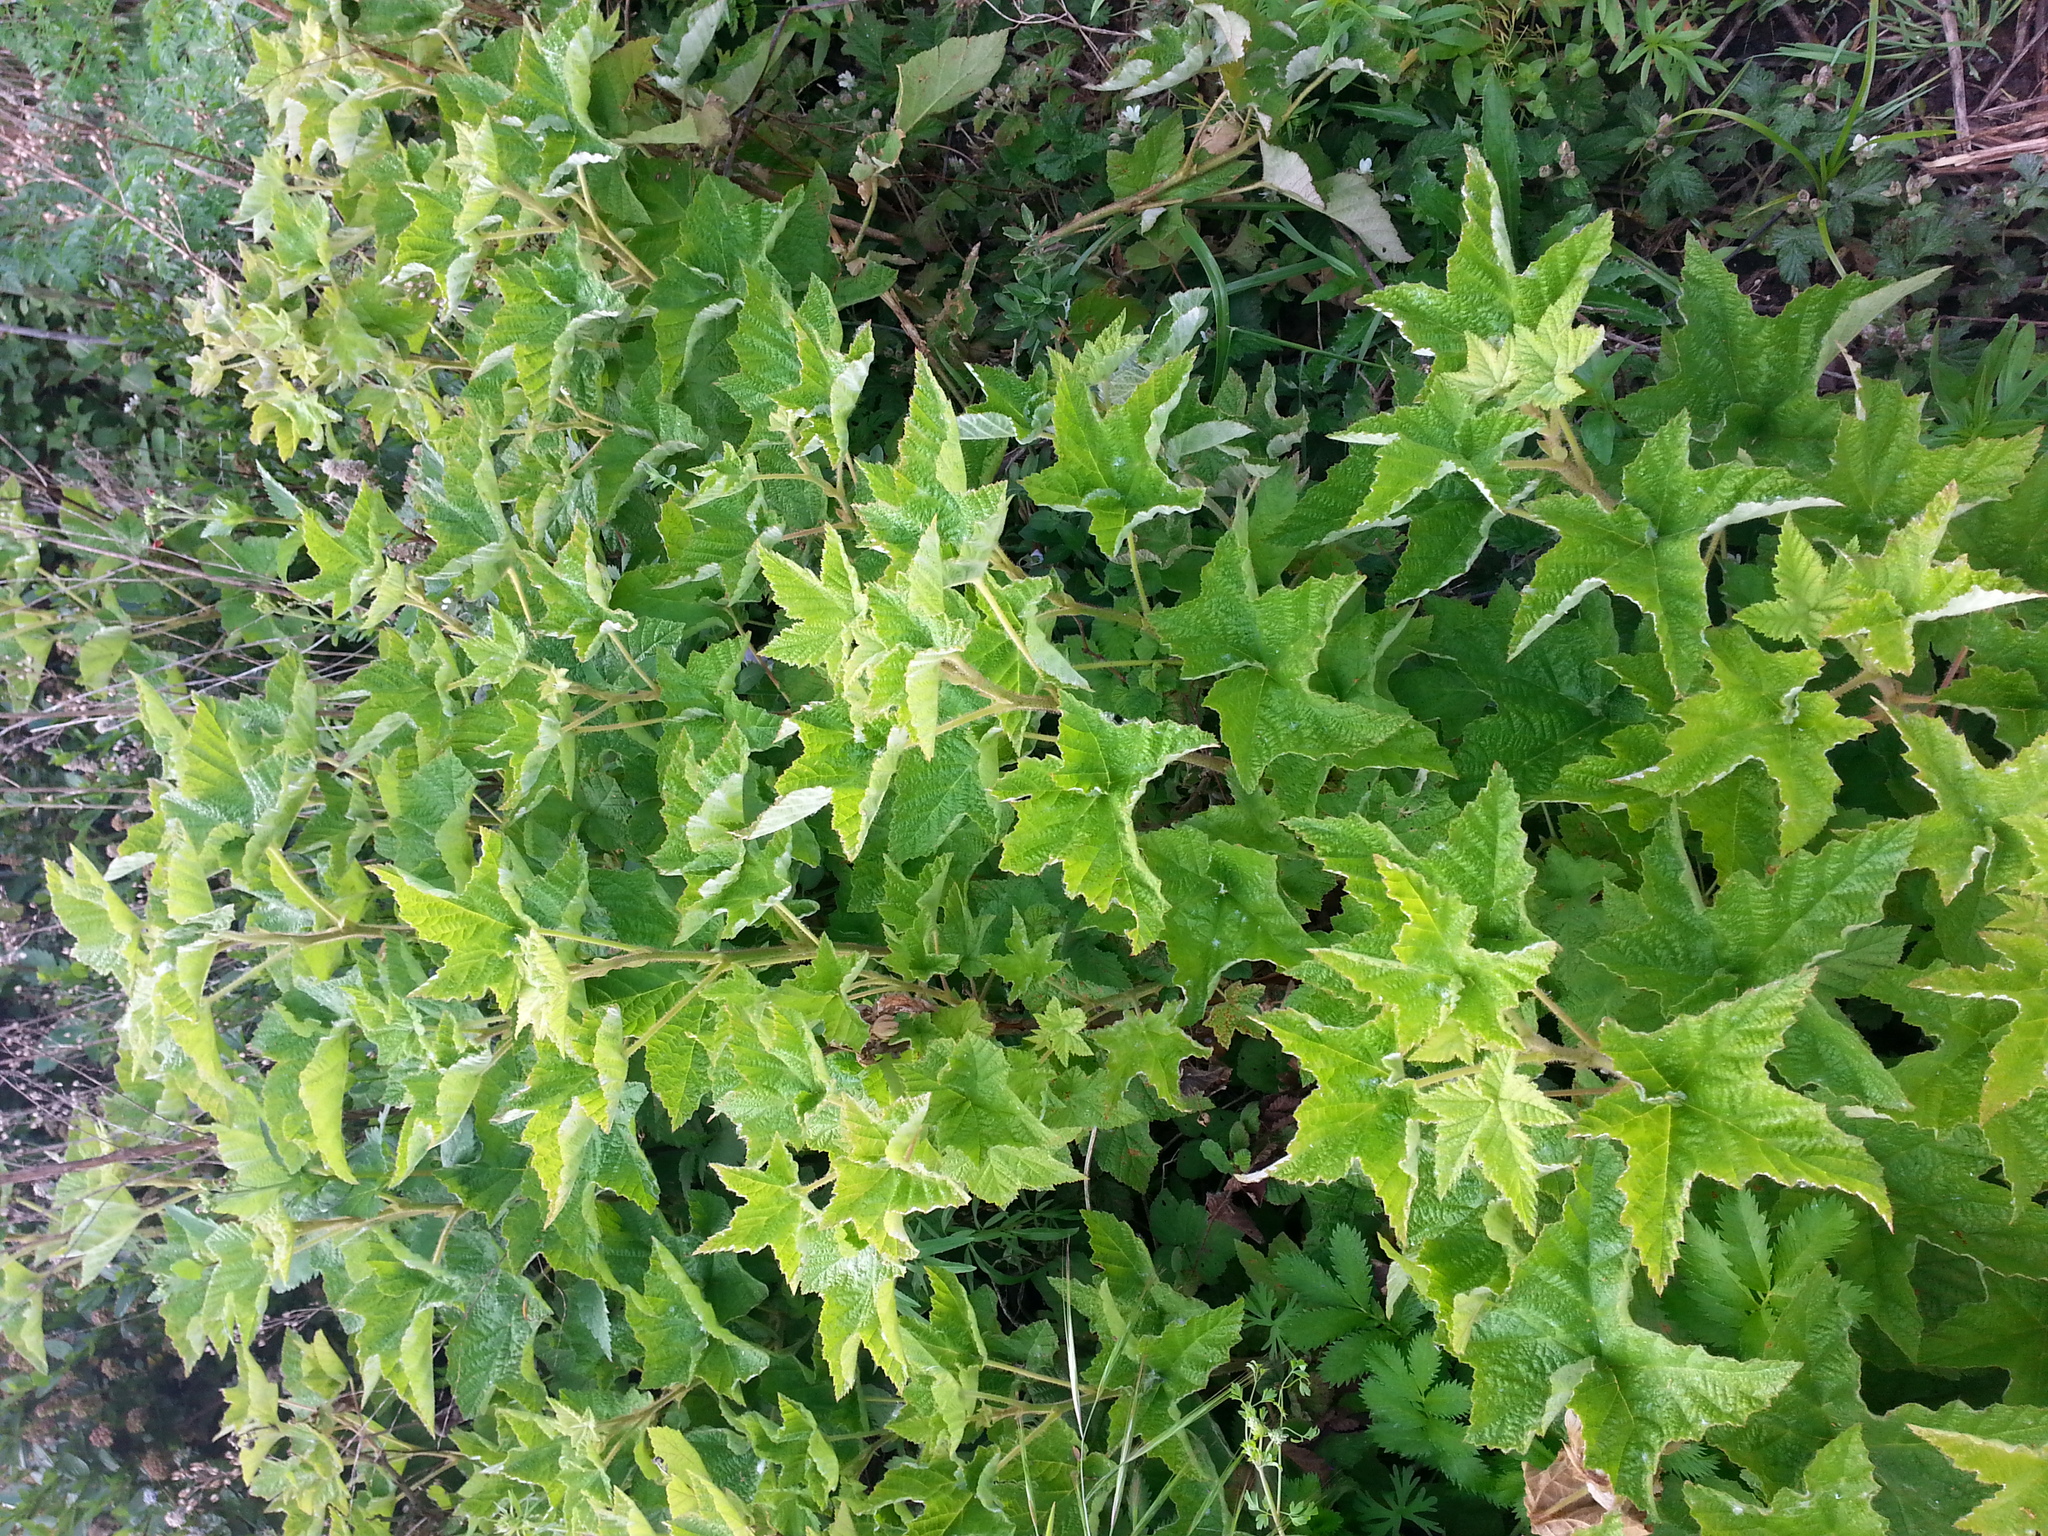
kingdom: Plantae
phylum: Tracheophyta
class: Magnoliopsida
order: Rosales
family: Rosaceae
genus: Rubus
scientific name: Rubus parviflorus
